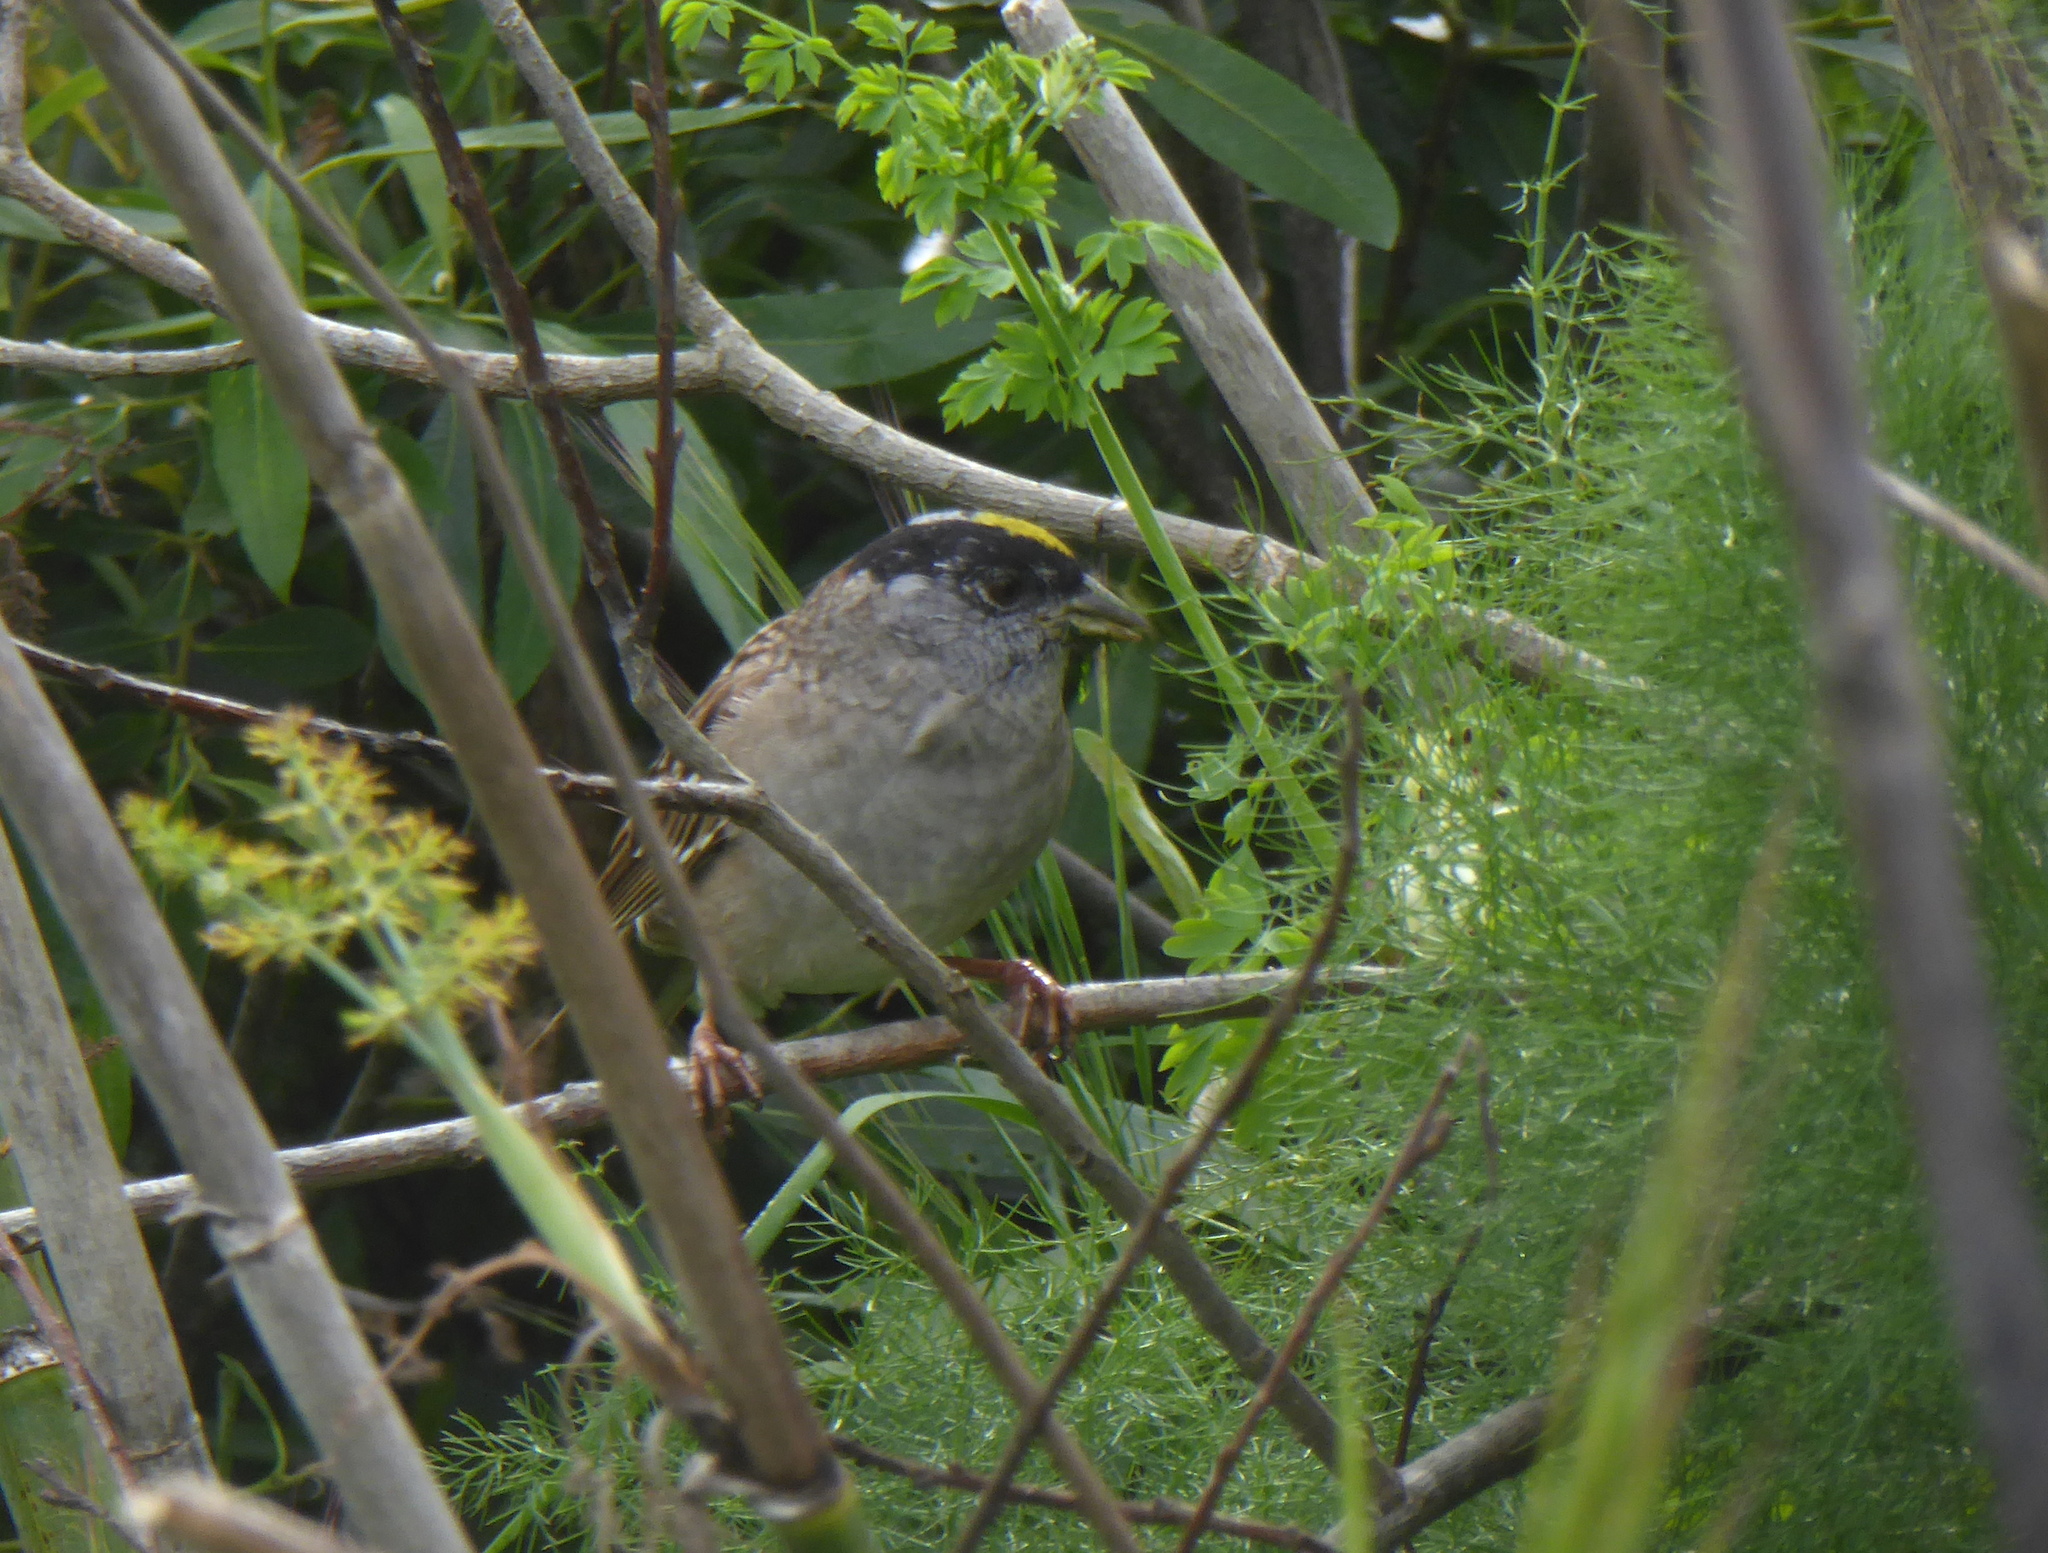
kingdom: Animalia
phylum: Chordata
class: Aves
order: Passeriformes
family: Passerellidae
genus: Zonotrichia
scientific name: Zonotrichia atricapilla
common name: Golden-crowned sparrow
